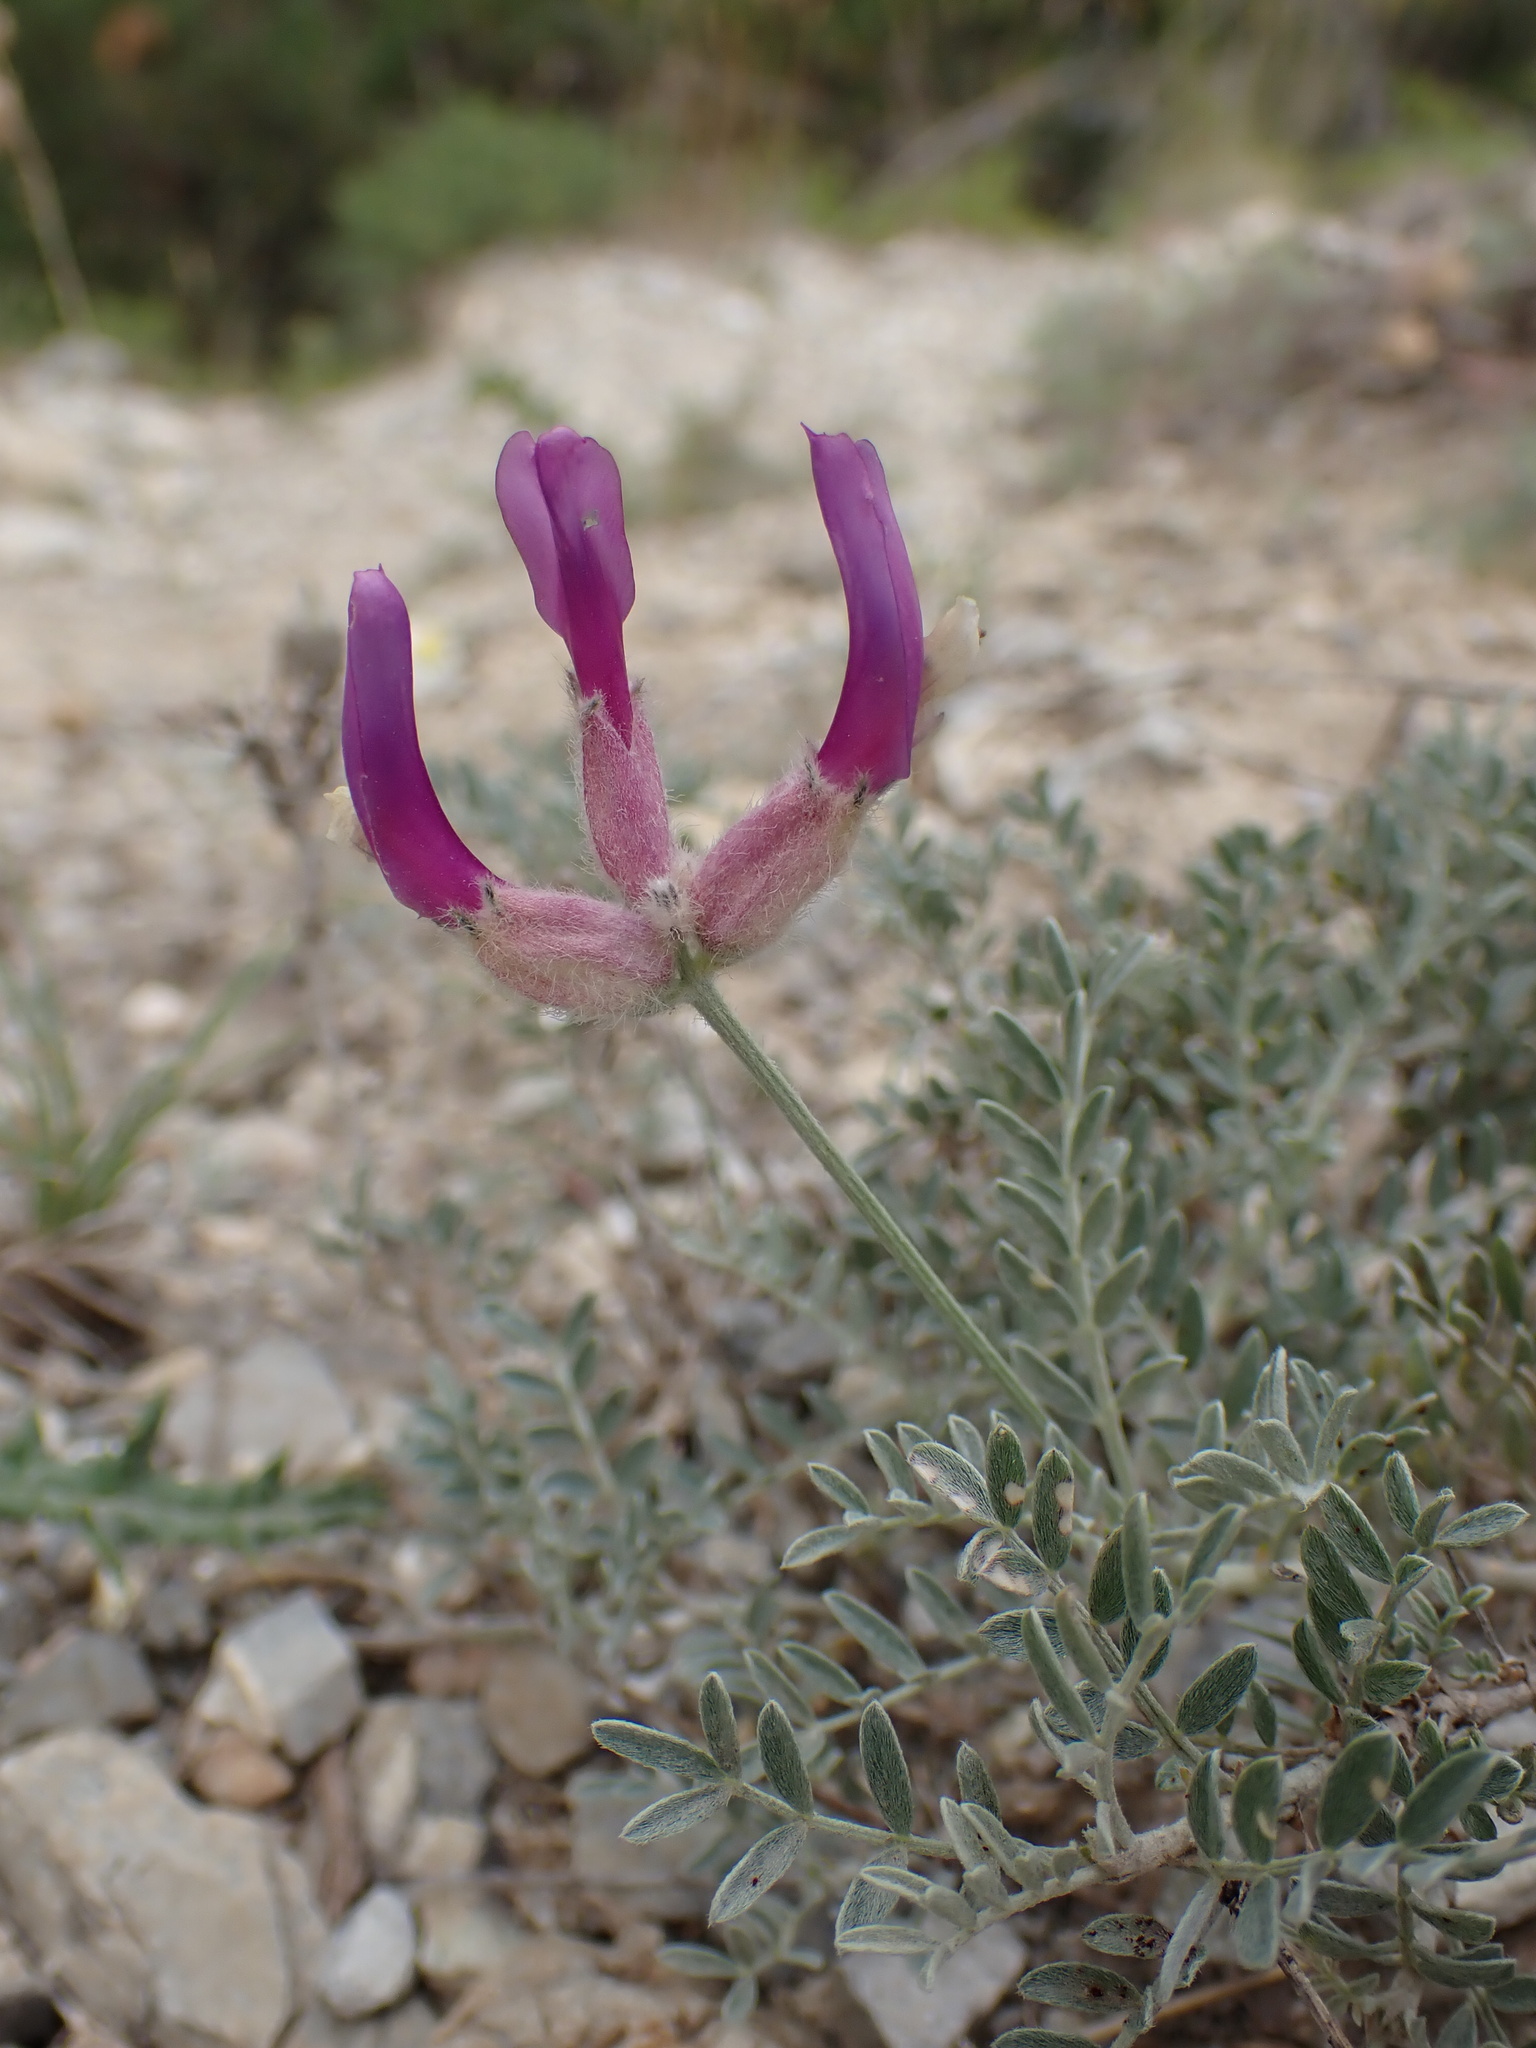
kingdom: Plantae
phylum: Tracheophyta
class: Magnoliopsida
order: Fabales
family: Fabaceae
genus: Astragalus
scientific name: Astragalus vesicarius
